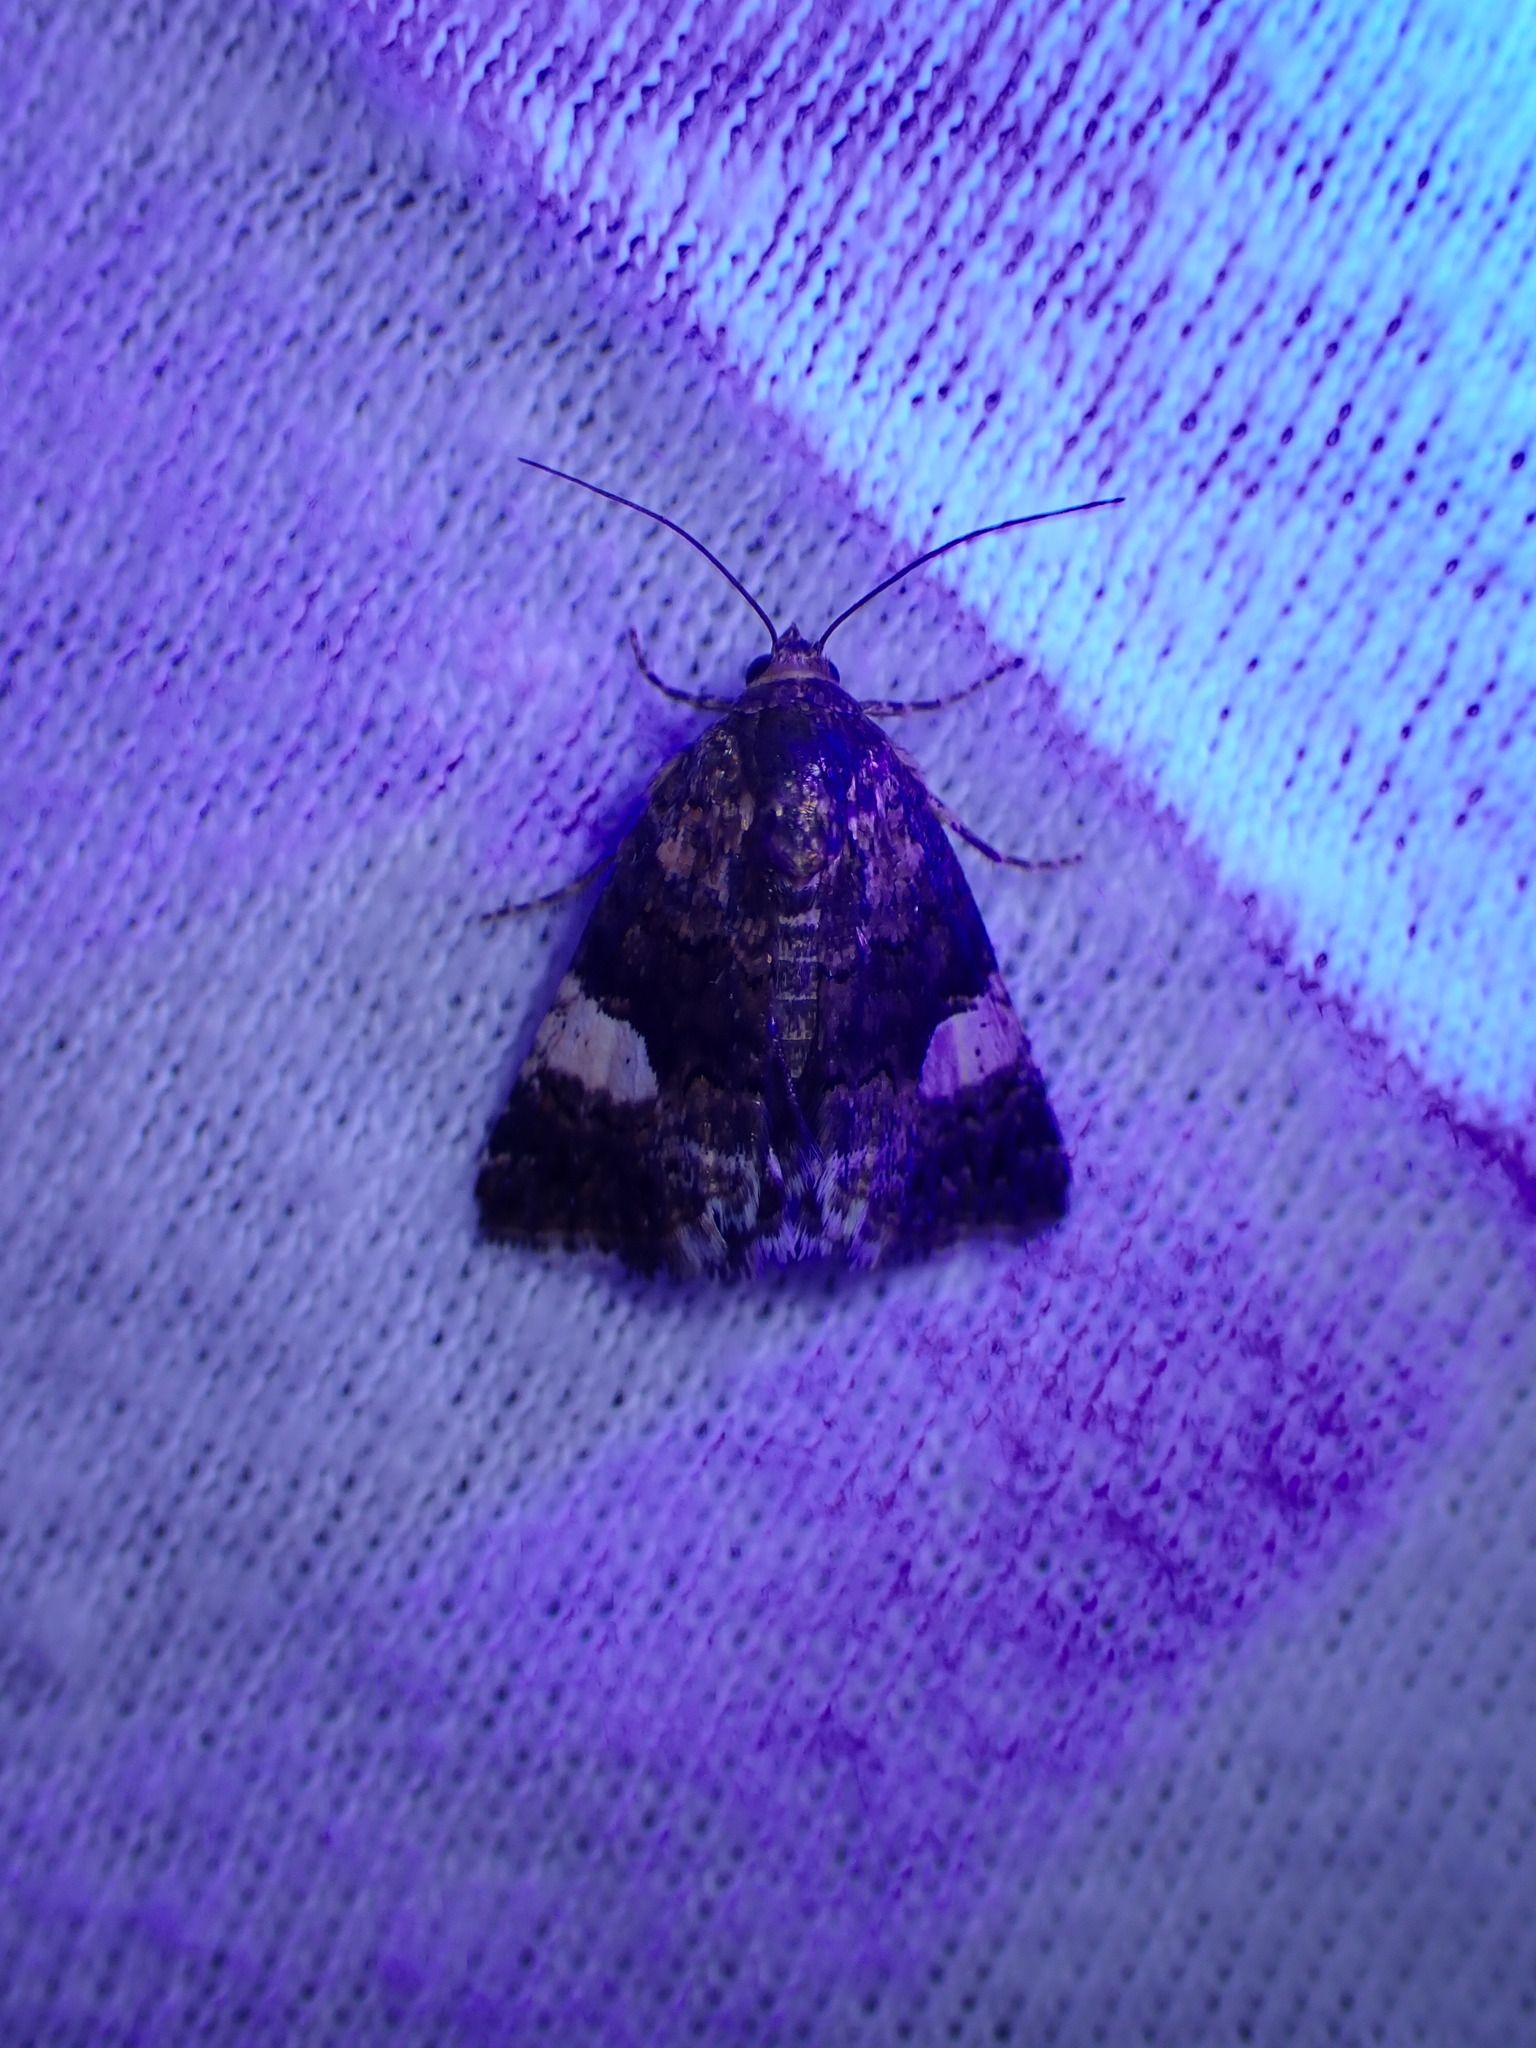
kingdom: Animalia
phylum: Arthropoda
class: Insecta
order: Lepidoptera
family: Erebidae
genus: Tyta
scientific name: Tyta luctuosa
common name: Four-spotted
